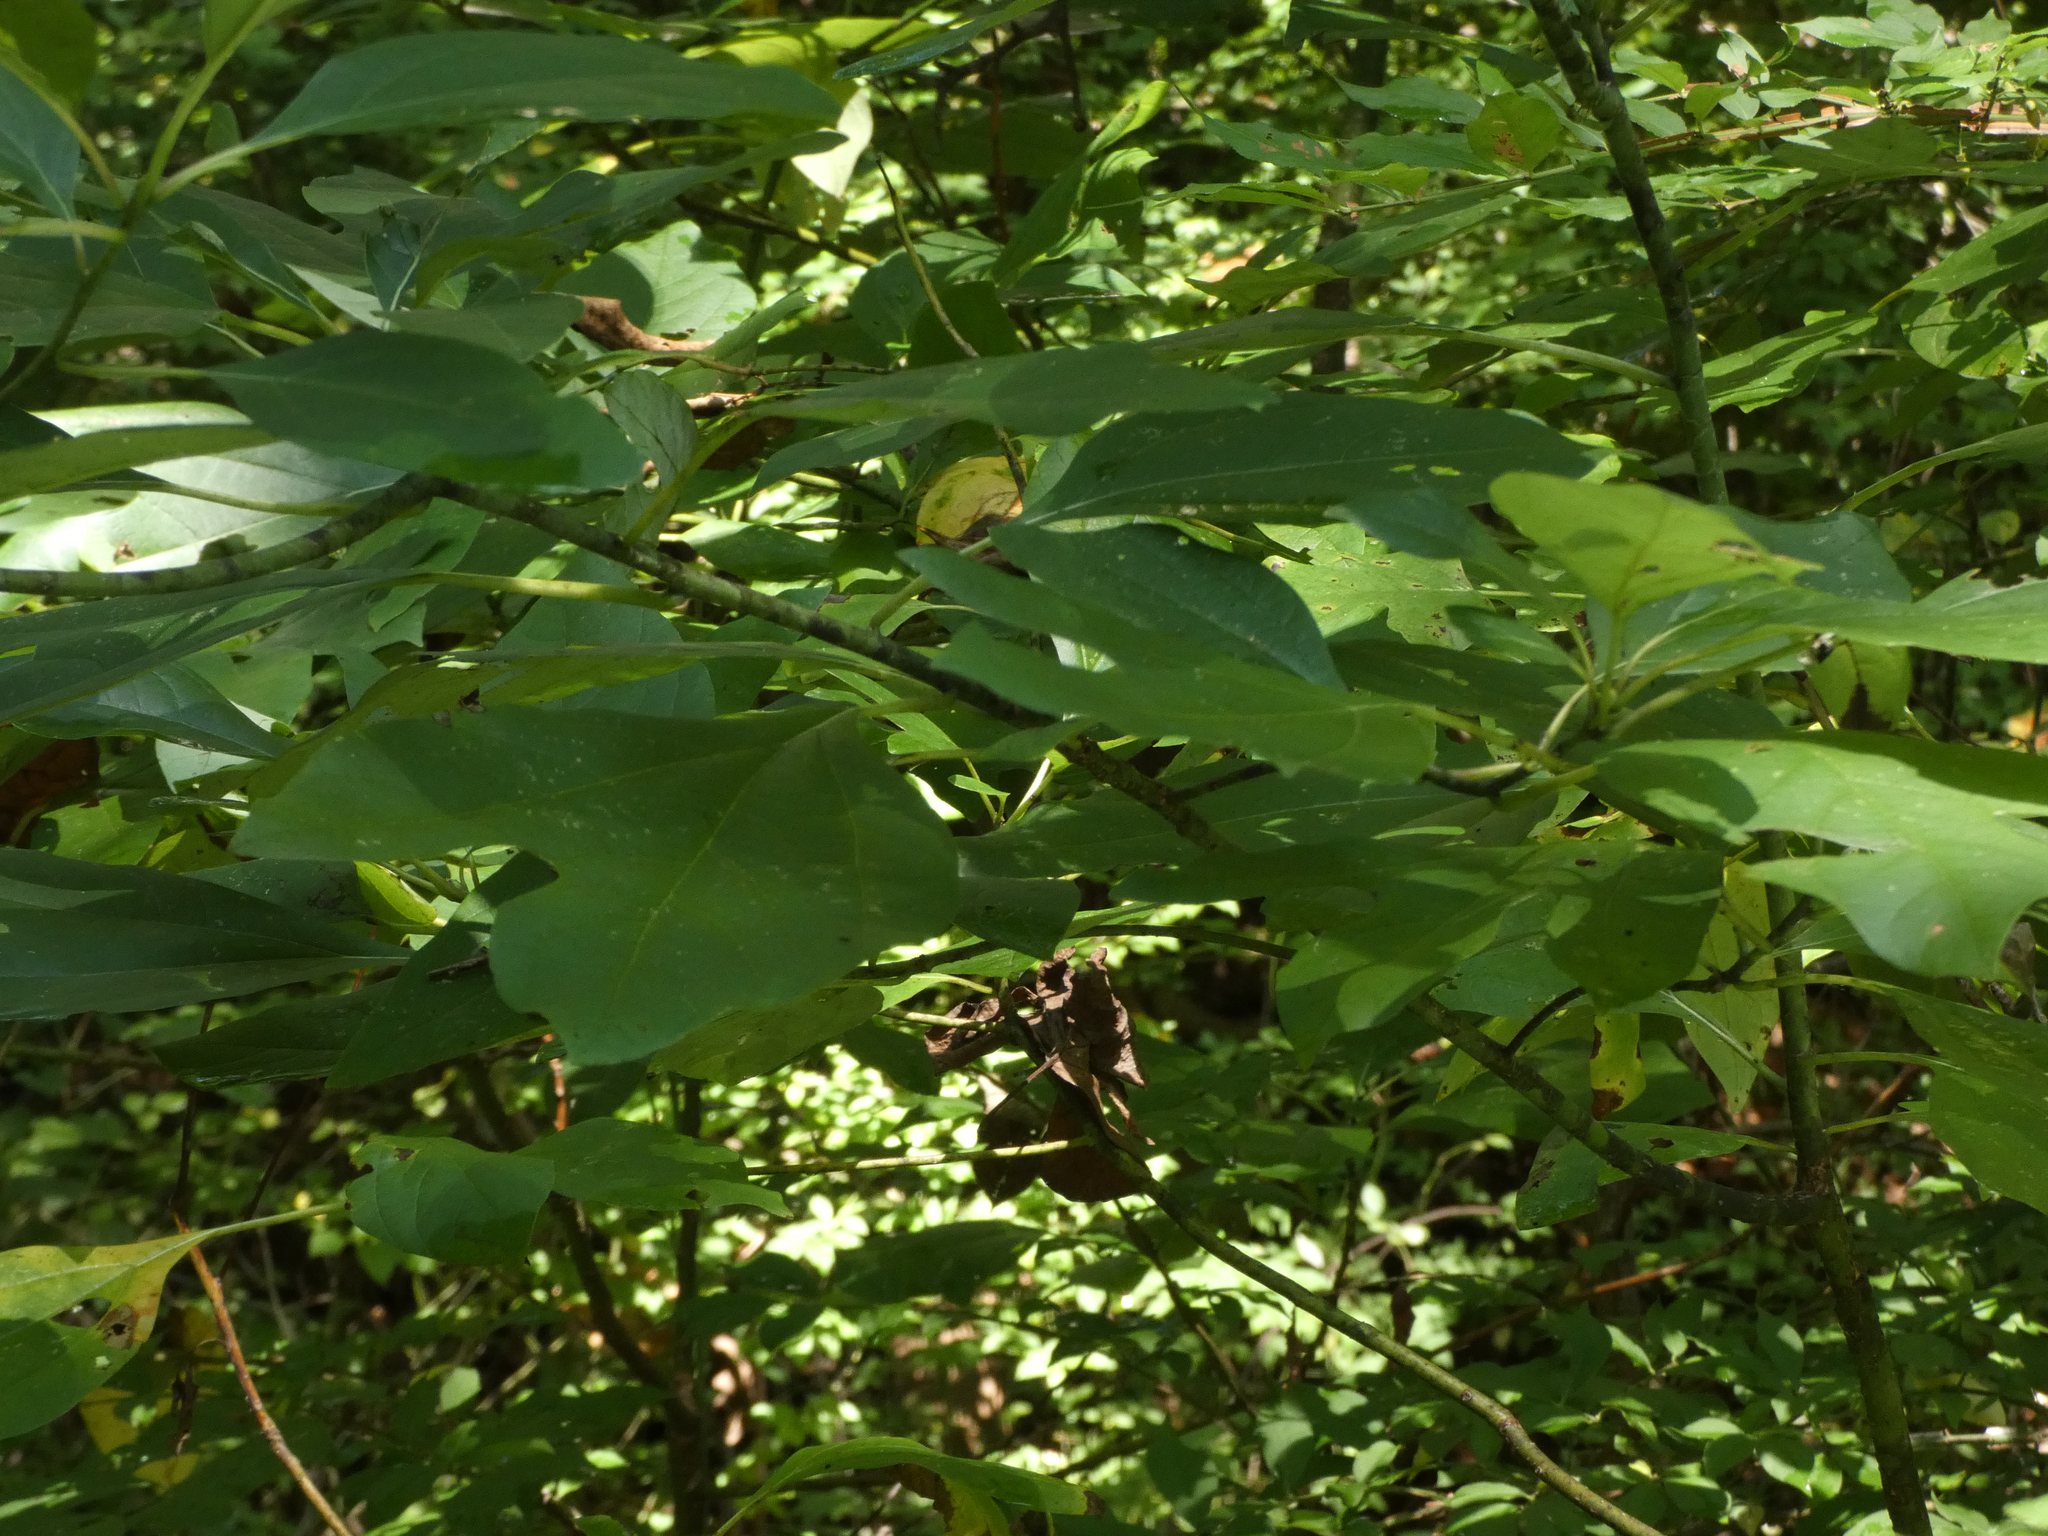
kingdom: Plantae
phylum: Tracheophyta
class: Magnoliopsida
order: Laurales
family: Lauraceae
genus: Sassafras
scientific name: Sassafras albidum
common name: Sassafras
